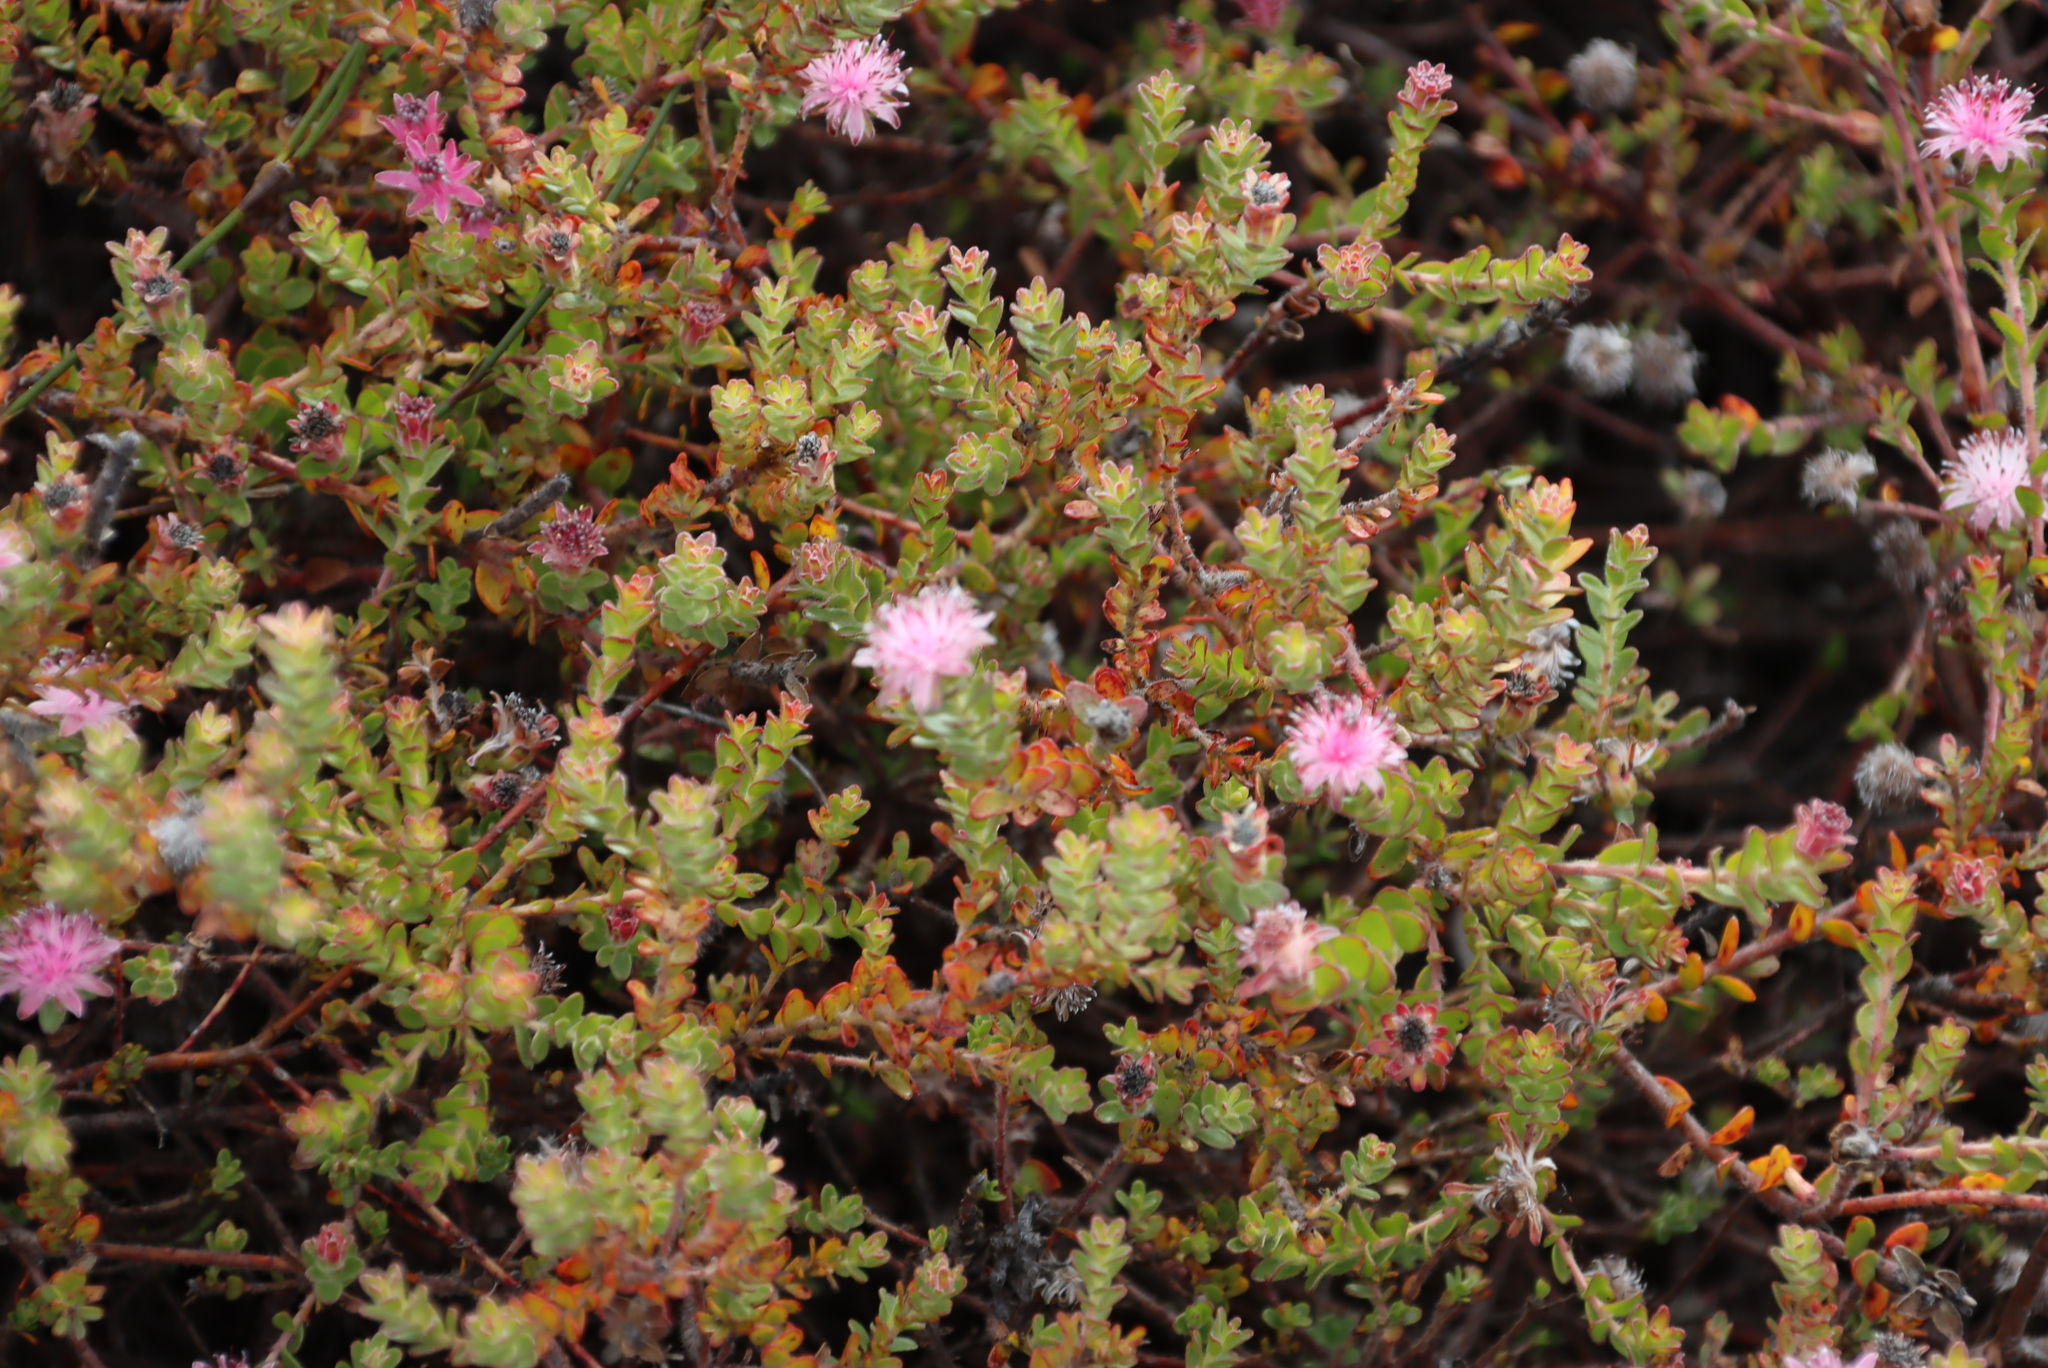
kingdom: Plantae
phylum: Tracheophyta
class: Magnoliopsida
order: Proteales
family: Proteaceae
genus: Diastella
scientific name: Diastella divaricata
